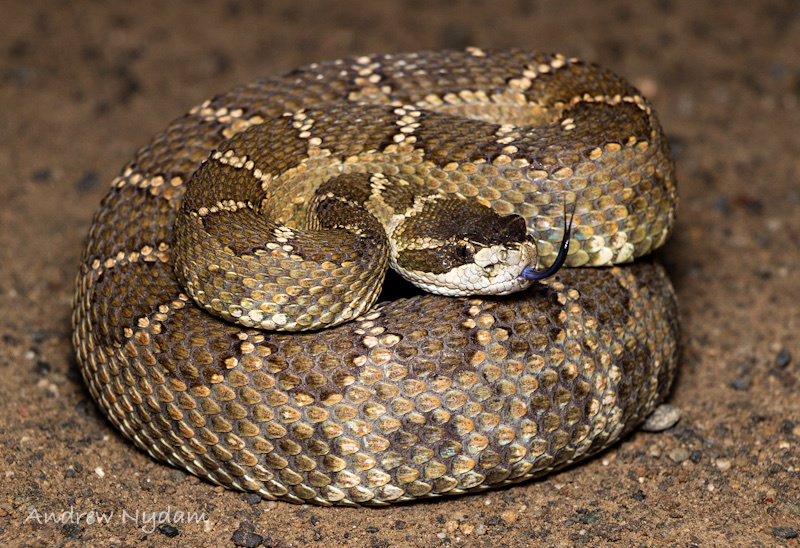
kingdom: Animalia
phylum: Chordata
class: Squamata
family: Viperidae
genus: Crotalus
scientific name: Crotalus oreganus
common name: Abyssus
